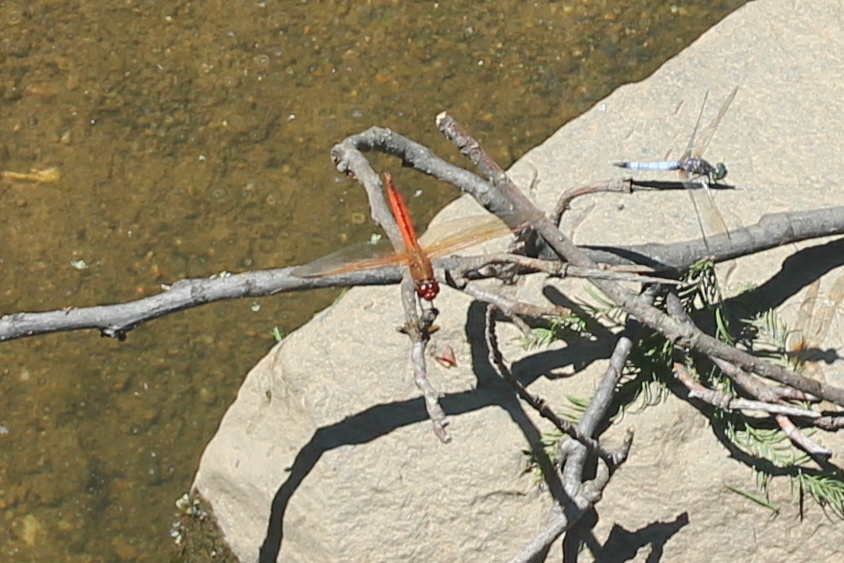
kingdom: Animalia
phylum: Arthropoda
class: Insecta
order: Odonata
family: Libellulidae
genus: Libellula
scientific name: Libellula needhami
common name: Needham's skimmer
